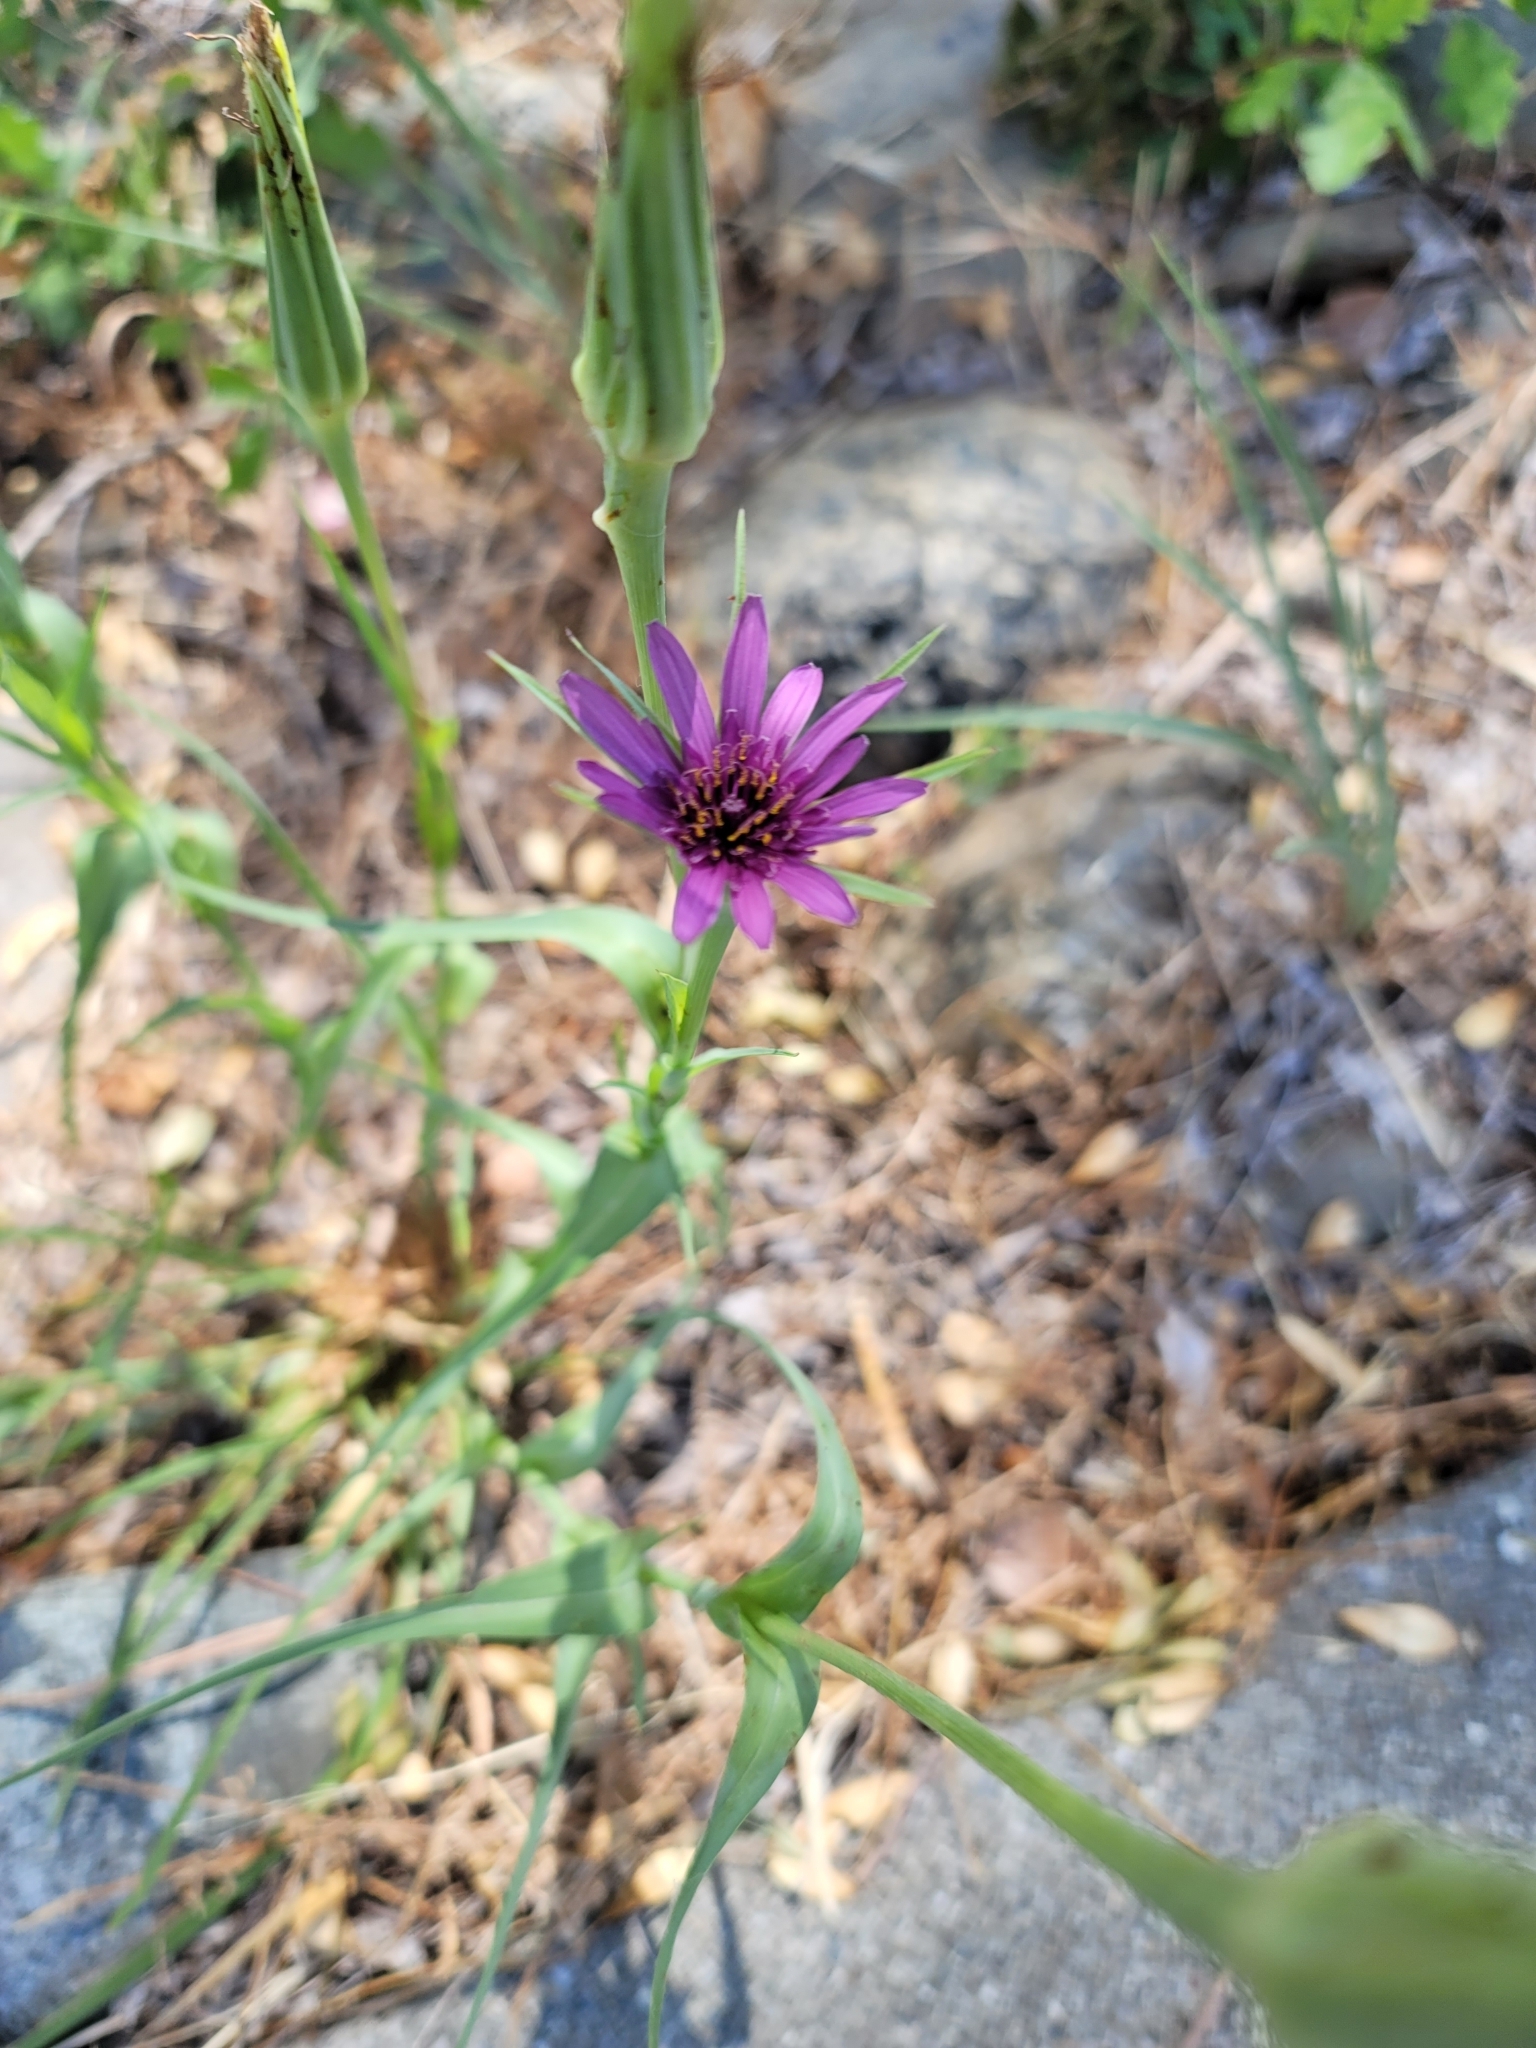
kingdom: Plantae
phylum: Tracheophyta
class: Magnoliopsida
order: Asterales
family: Asteraceae
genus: Tragopogon
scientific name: Tragopogon porrifolius
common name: Salsify
